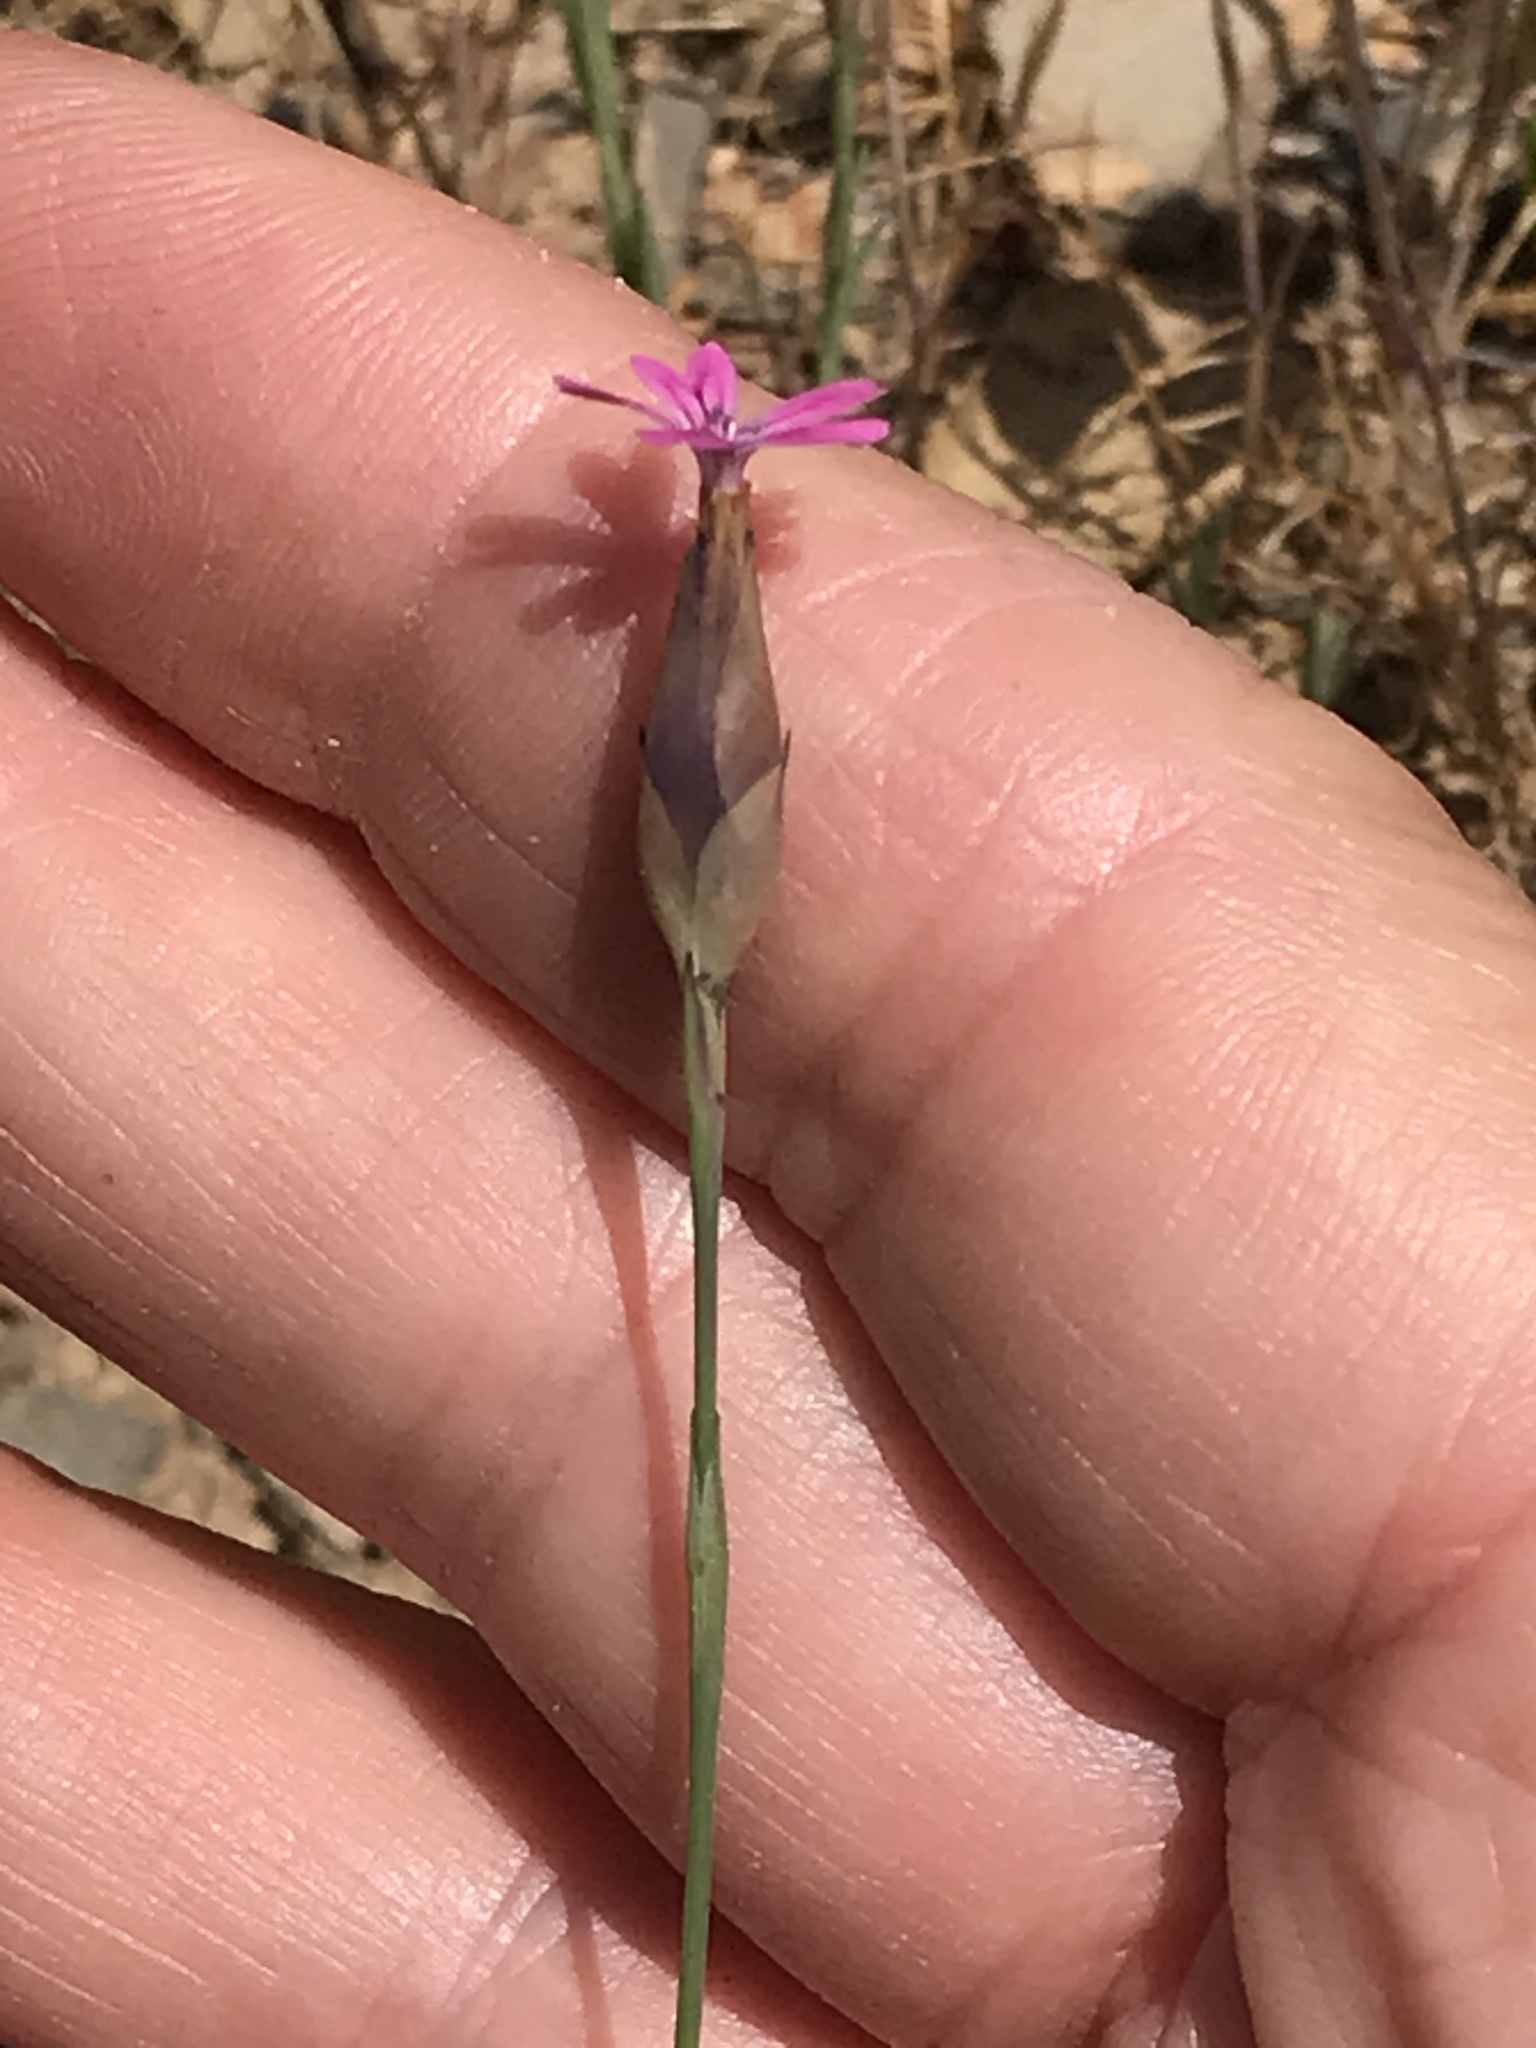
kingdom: Plantae
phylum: Tracheophyta
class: Magnoliopsida
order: Caryophyllales
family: Caryophyllaceae
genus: Petrorhagia
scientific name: Petrorhagia dubia
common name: Hairypink
